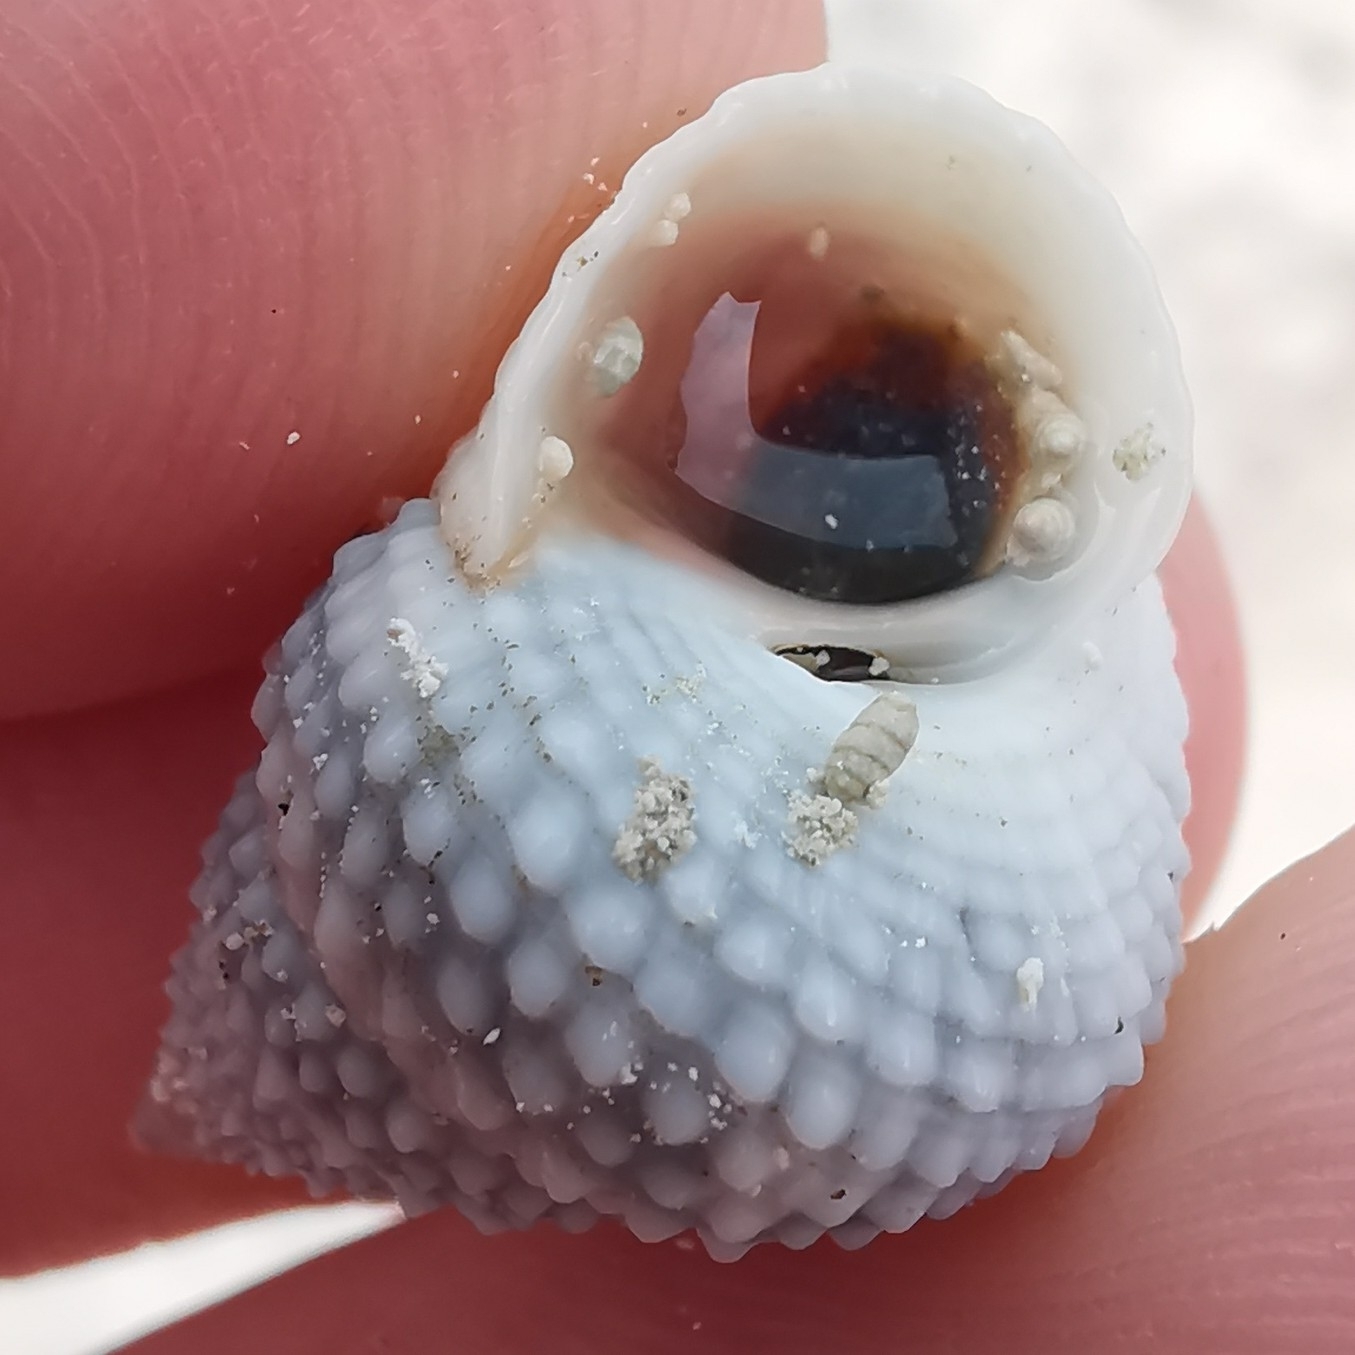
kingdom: Animalia
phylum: Mollusca
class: Gastropoda
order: Littorinimorpha
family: Littorinidae
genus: Cenchritis
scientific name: Cenchritis muricatus
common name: Beaded periwinkle
